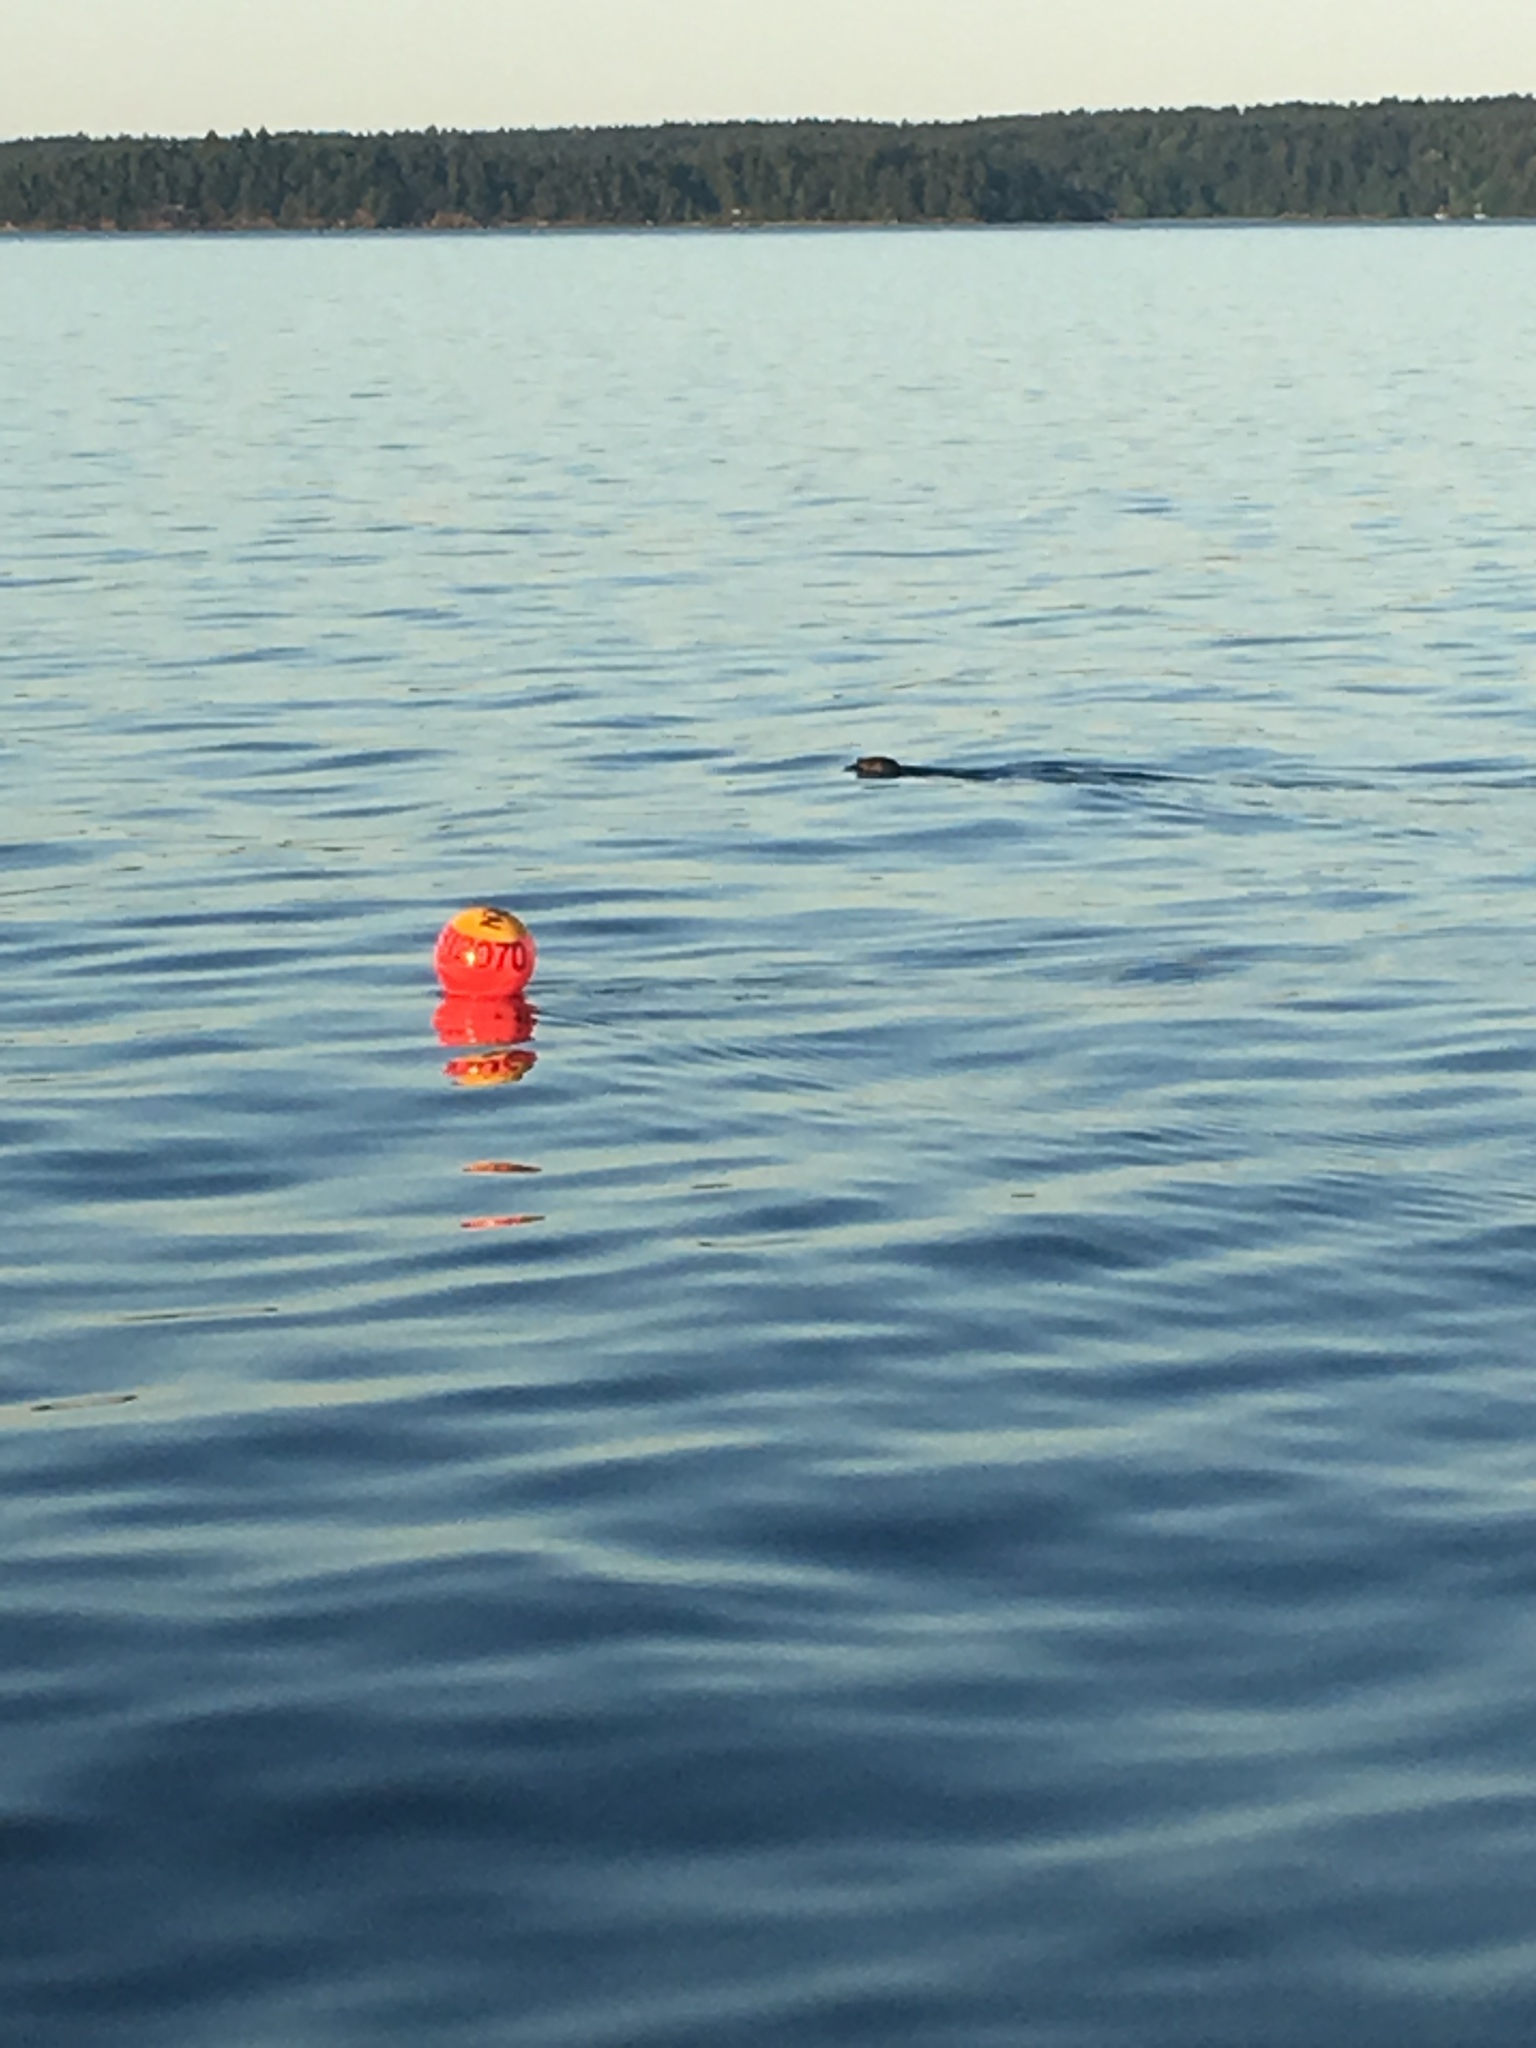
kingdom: Animalia
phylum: Chordata
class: Mammalia
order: Carnivora
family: Phocidae
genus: Phoca
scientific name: Phoca vitulina
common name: Harbor seal
